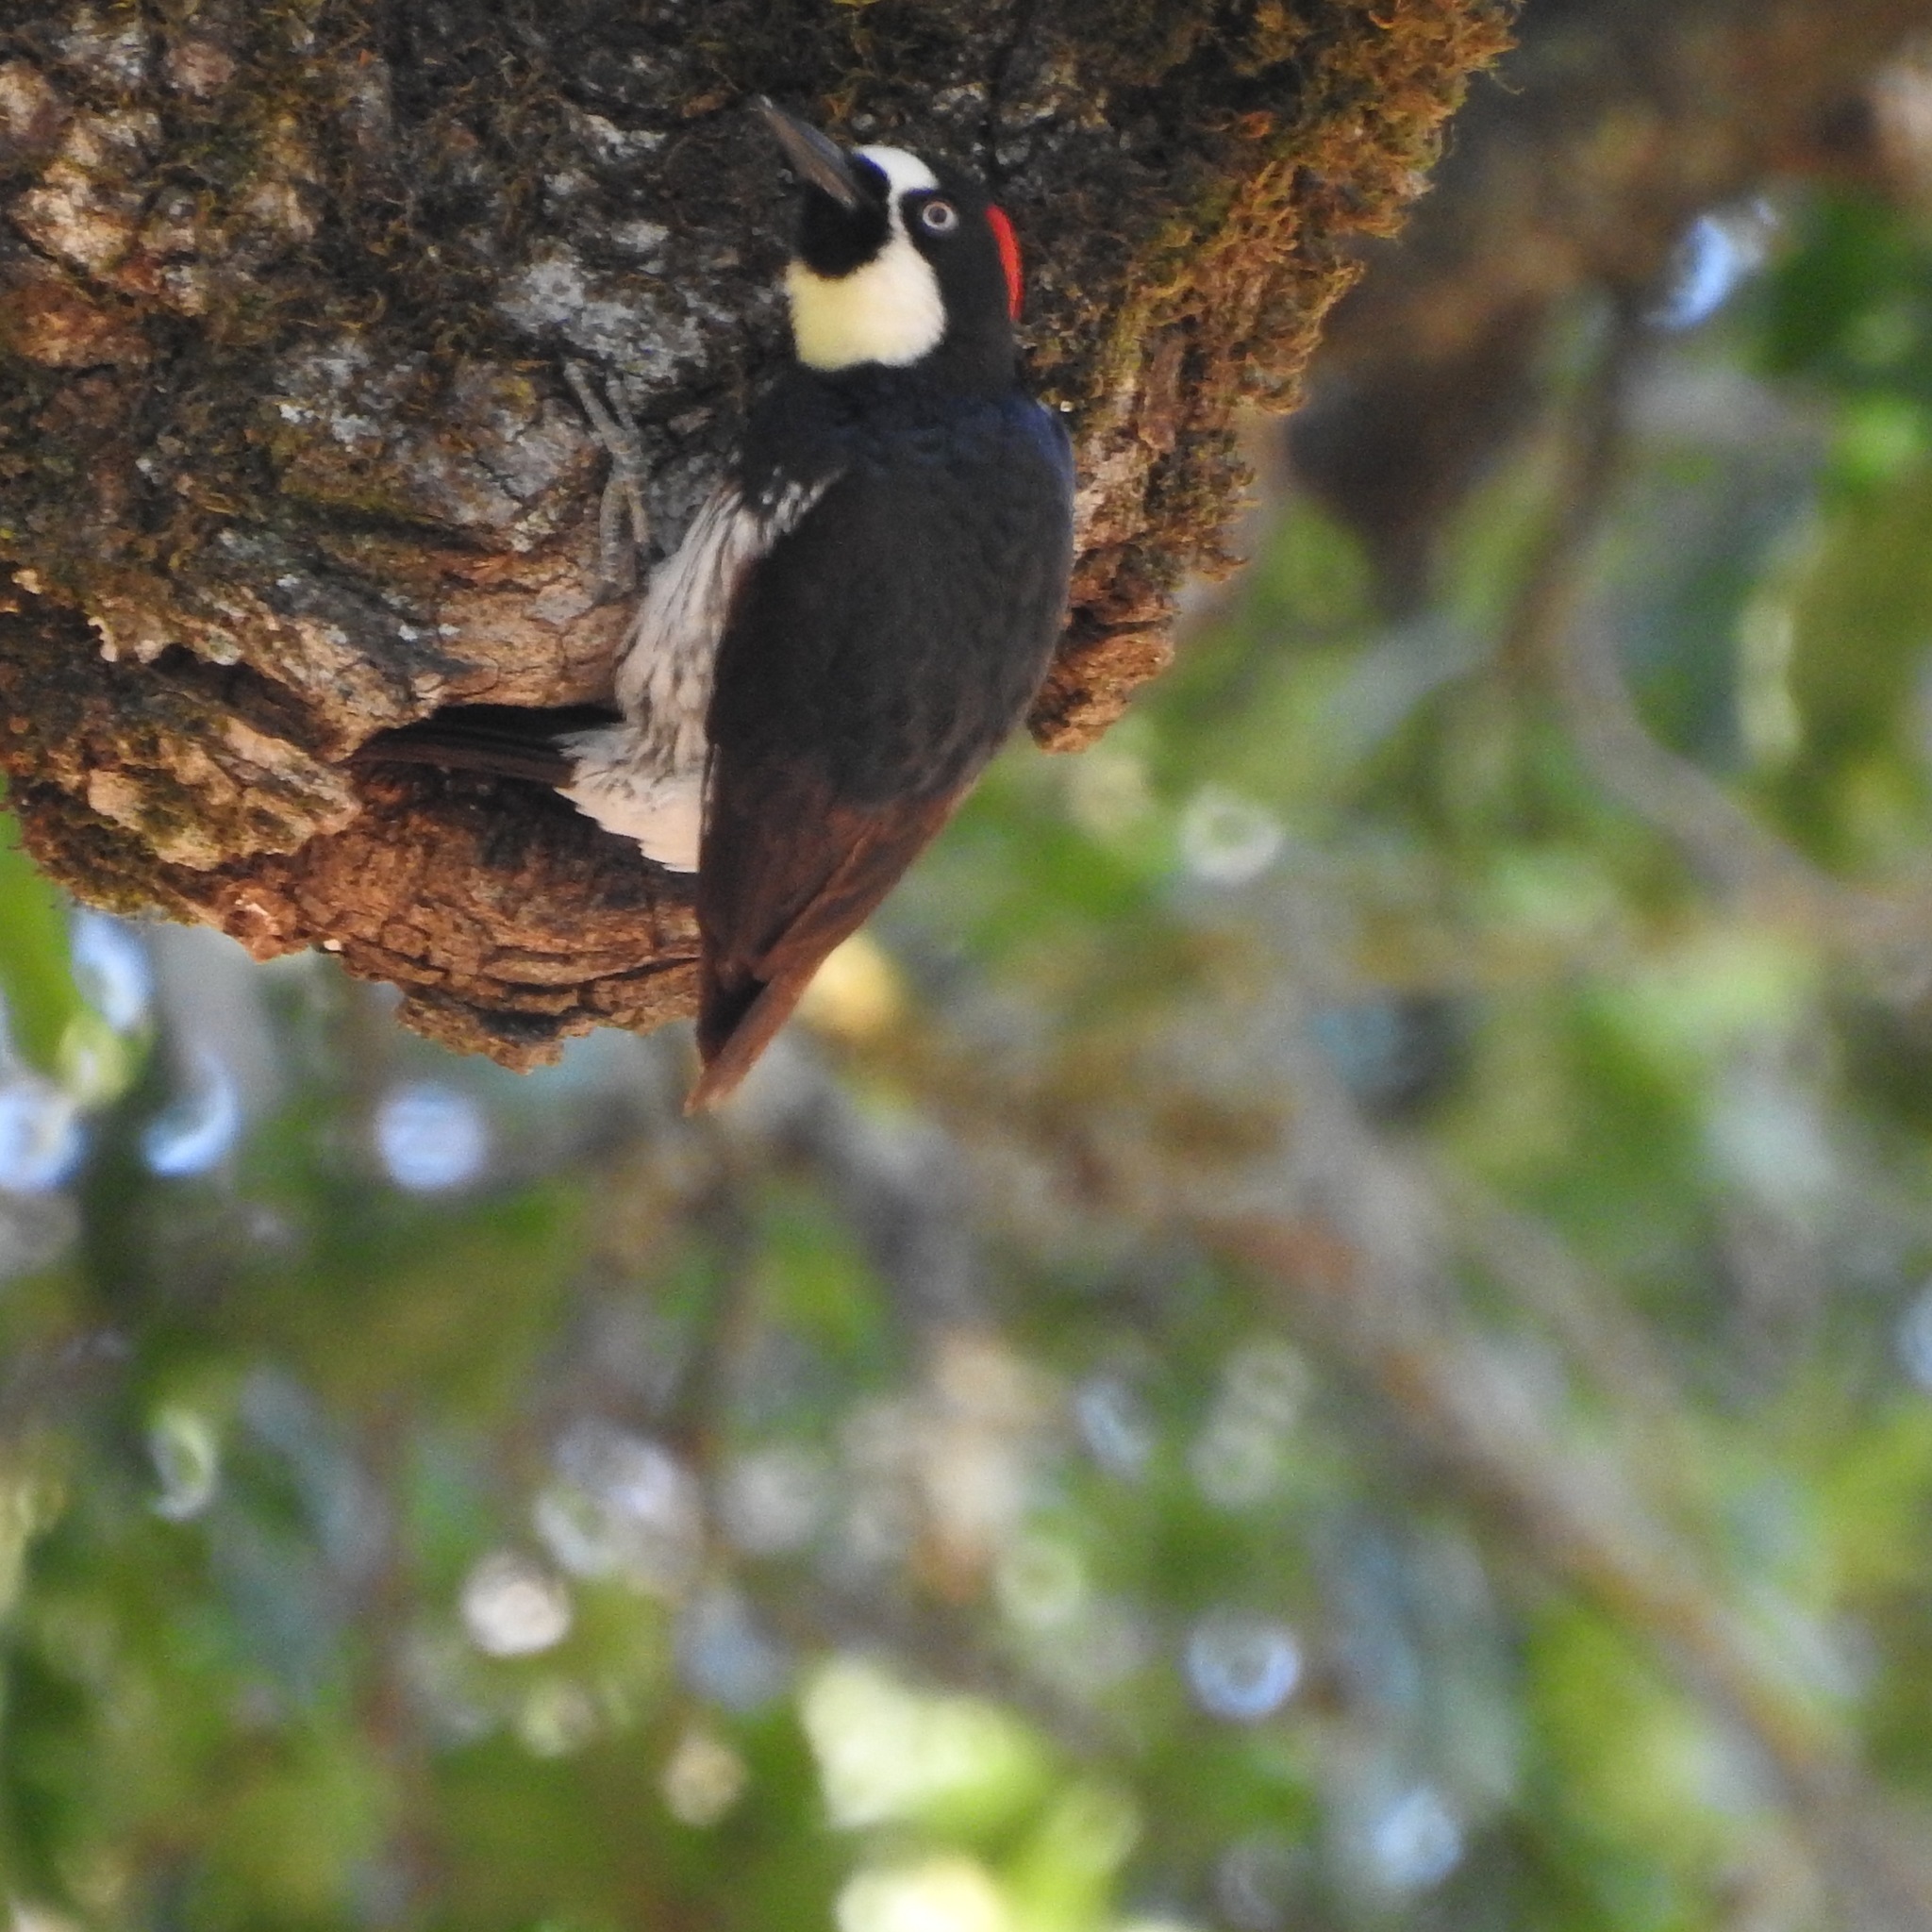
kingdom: Animalia
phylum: Chordata
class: Aves
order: Piciformes
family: Picidae
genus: Melanerpes
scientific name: Melanerpes formicivorus
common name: Acorn woodpecker
